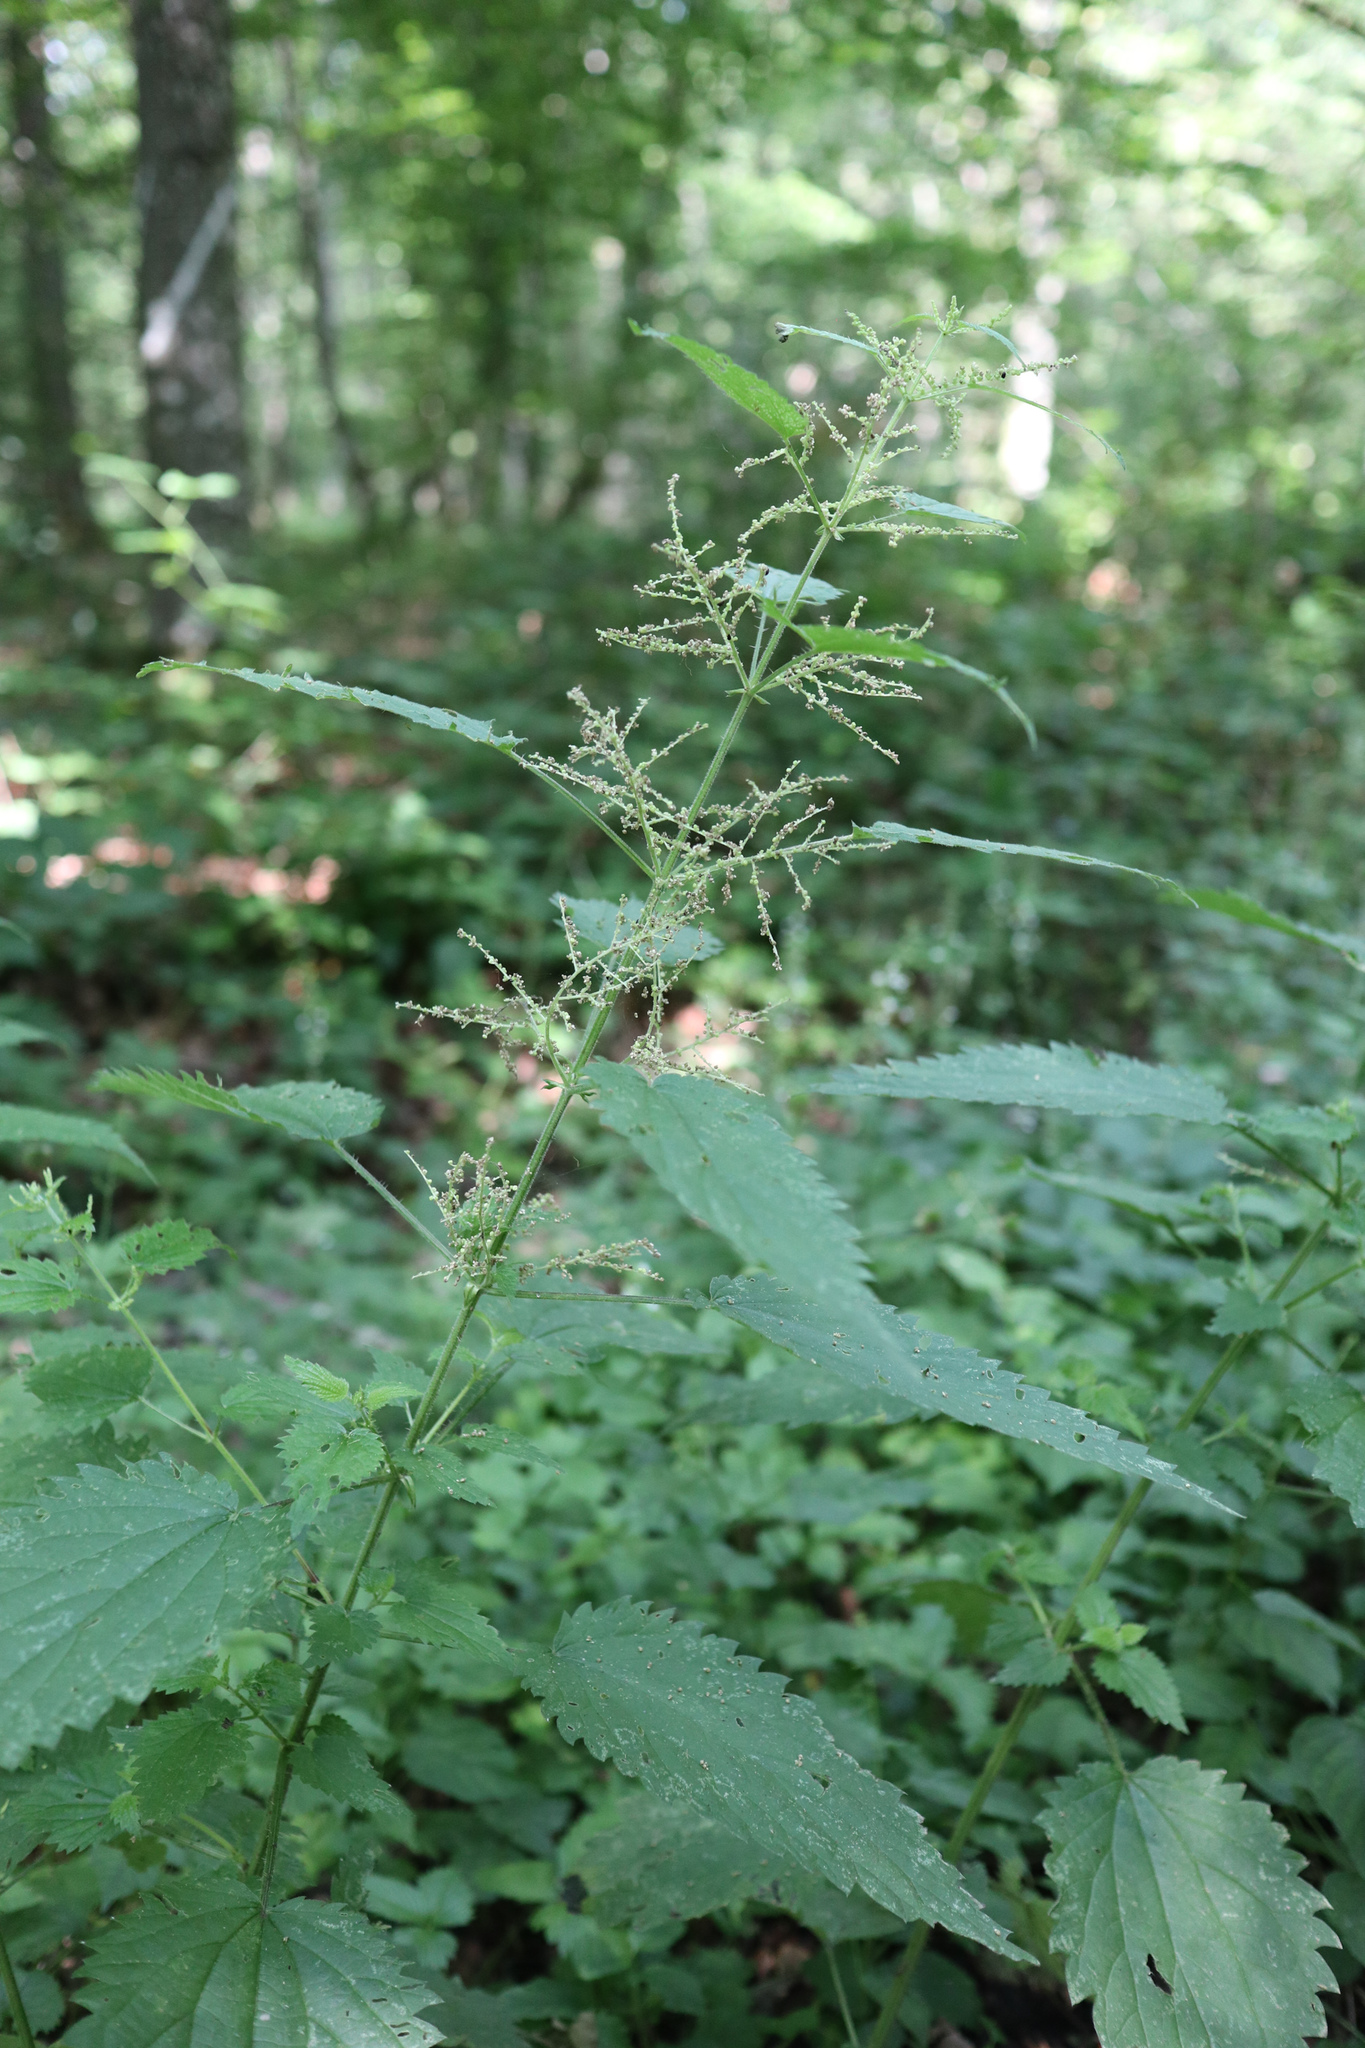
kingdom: Plantae
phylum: Tracheophyta
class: Magnoliopsida
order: Rosales
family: Urticaceae
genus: Urtica
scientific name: Urtica dioica
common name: Common nettle
